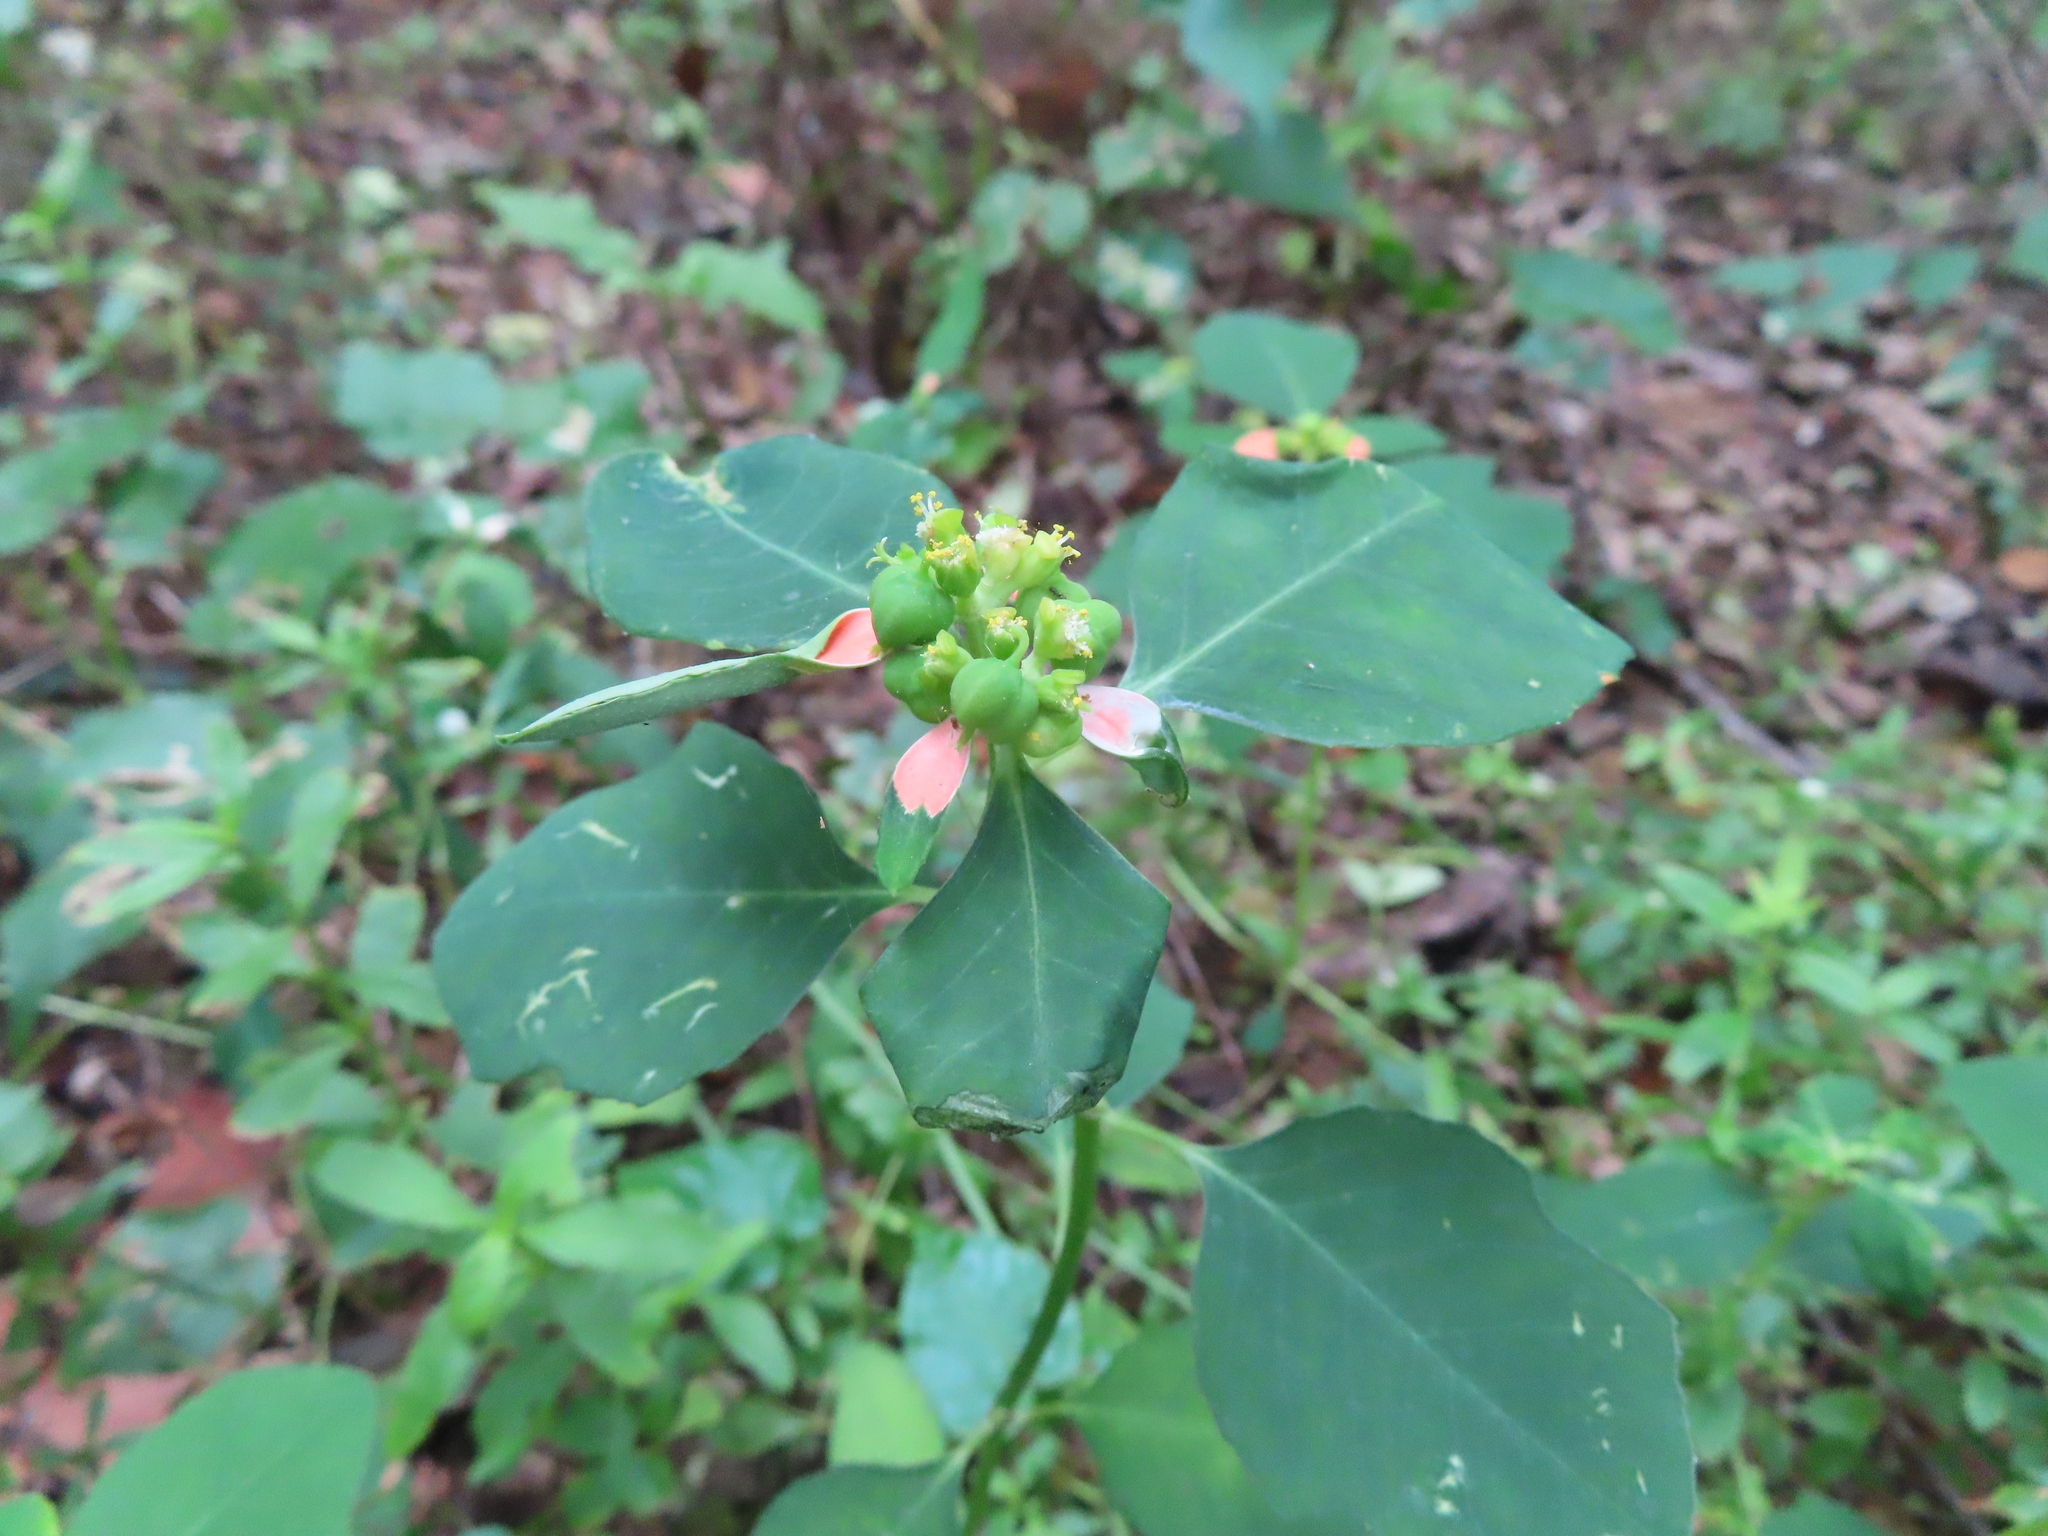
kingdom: Plantae
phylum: Tracheophyta
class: Magnoliopsida
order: Malpighiales
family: Euphorbiaceae
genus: Euphorbia
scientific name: Euphorbia heterophylla
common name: Mexican fireplant
